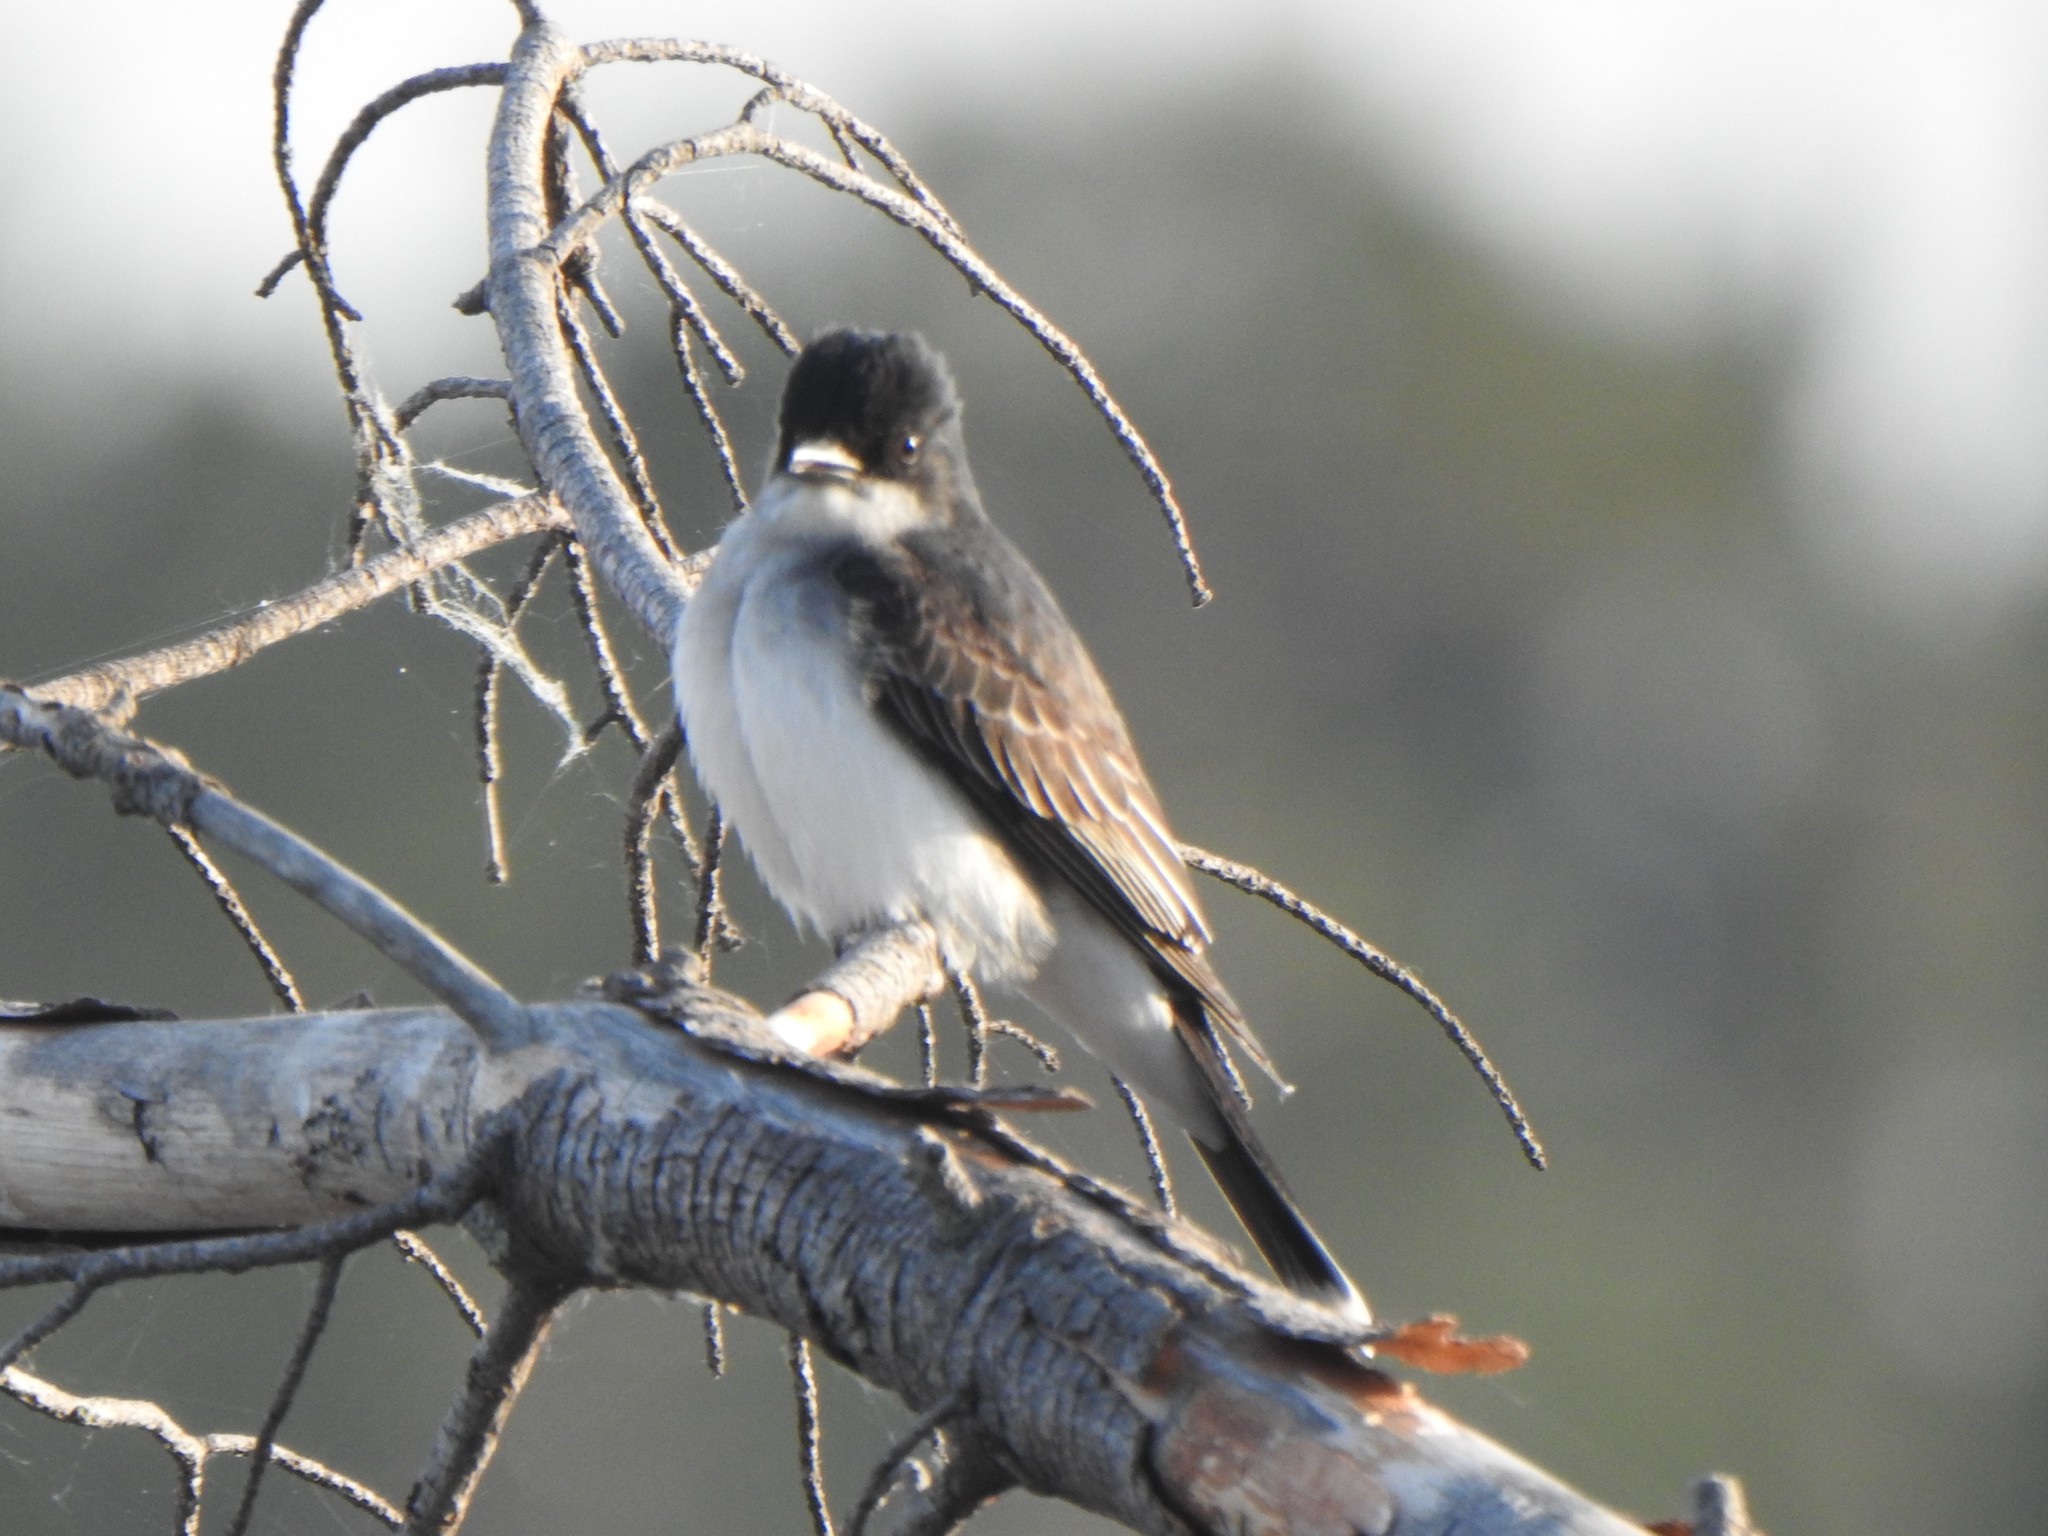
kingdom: Animalia
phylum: Chordata
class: Aves
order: Passeriformes
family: Tyrannidae
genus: Tyrannus
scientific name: Tyrannus tyrannus
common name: Eastern kingbird
